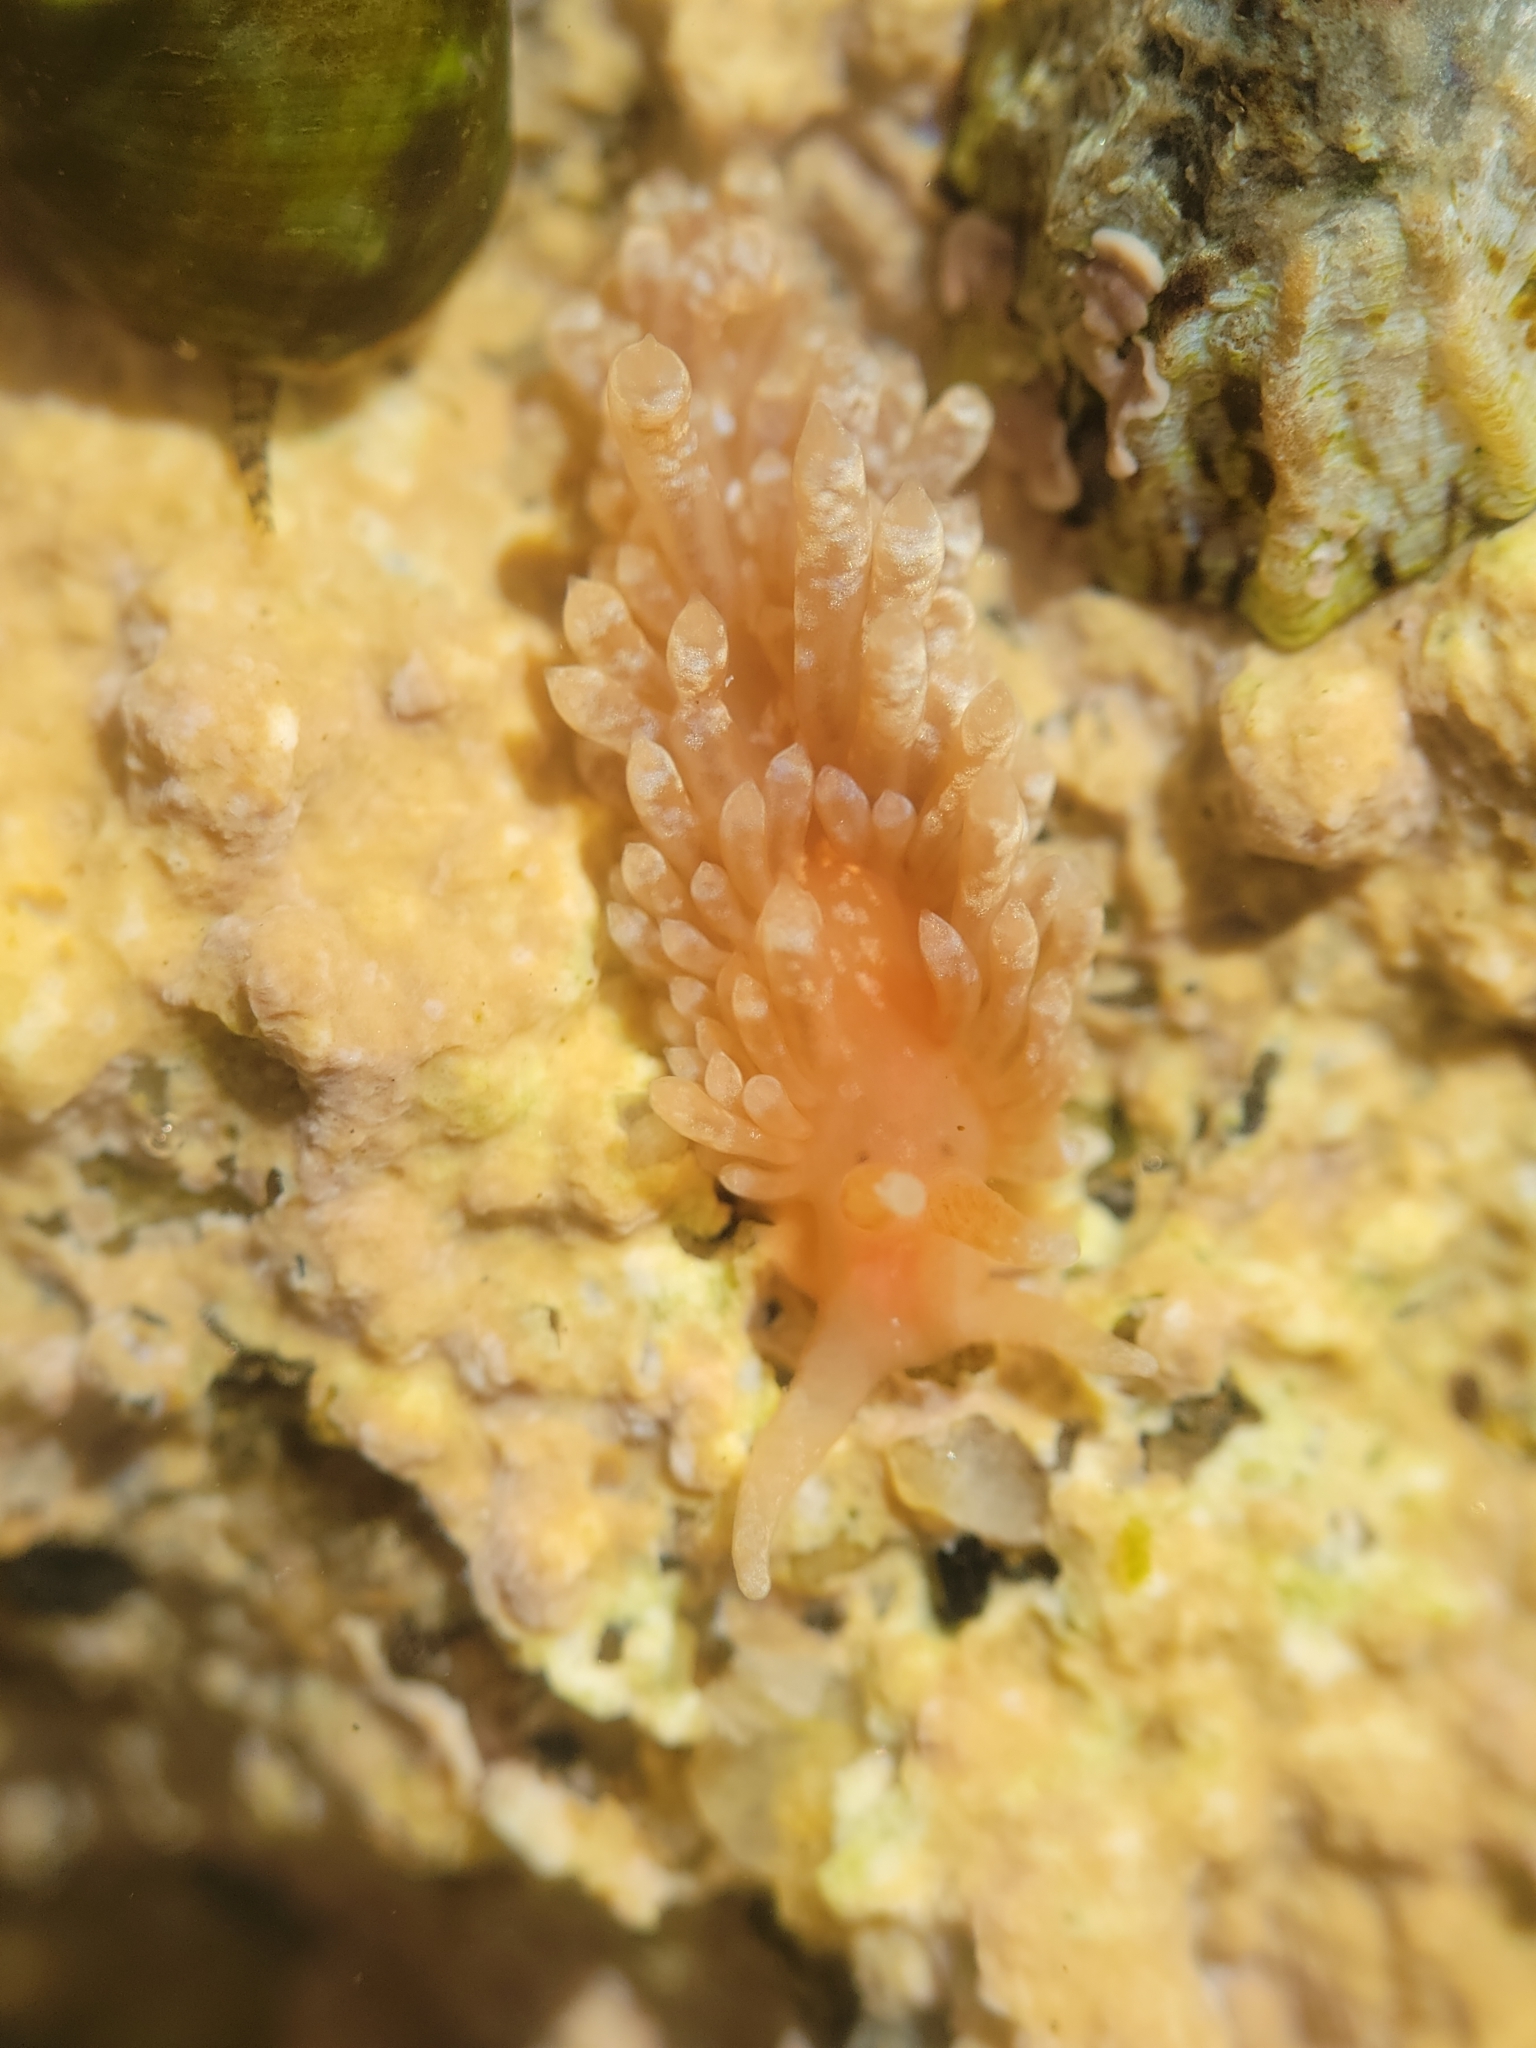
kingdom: Animalia
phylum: Mollusca
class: Gastropoda
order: Nudibranchia
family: Aeolidiidae
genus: Anteaeolidiella
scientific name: Anteaeolidiella chromosoma
